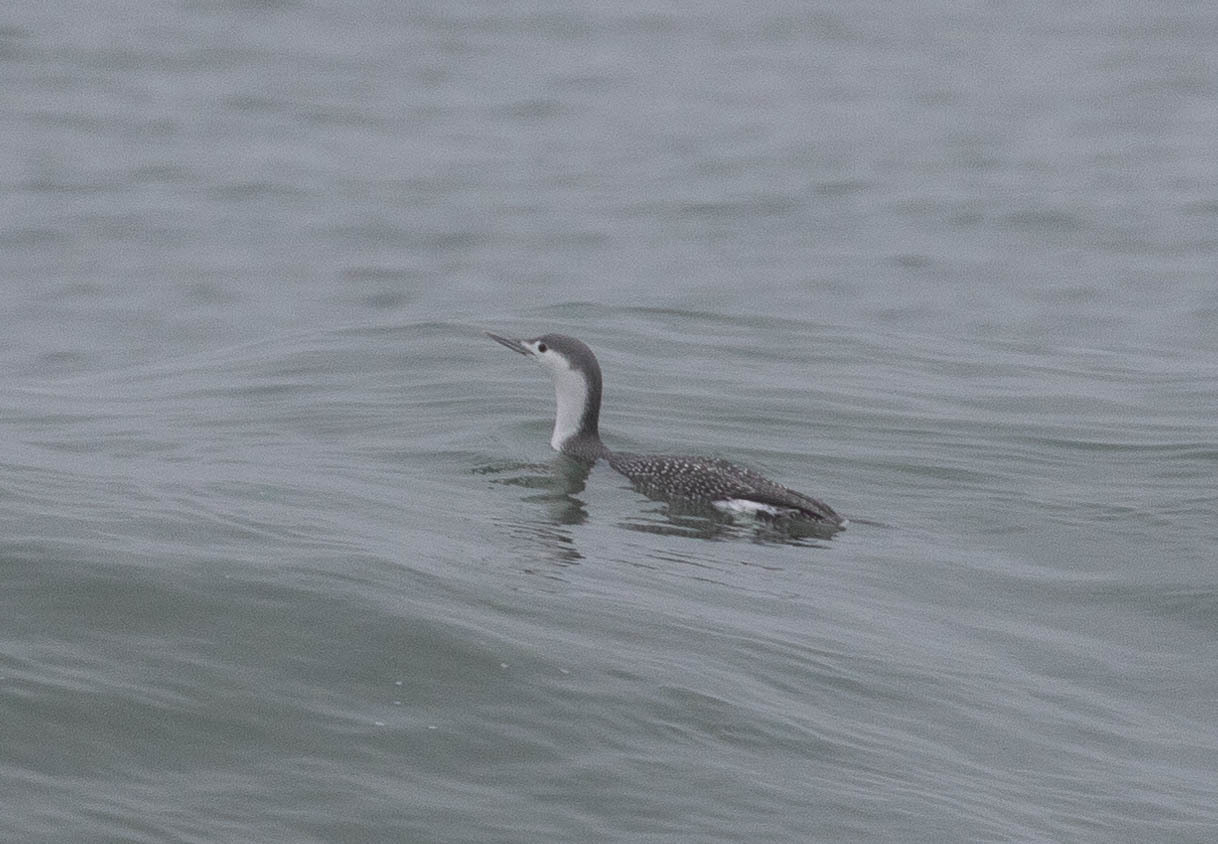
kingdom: Animalia
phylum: Chordata
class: Aves
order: Gaviiformes
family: Gaviidae
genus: Gavia
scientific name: Gavia stellata
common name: Red-throated loon
